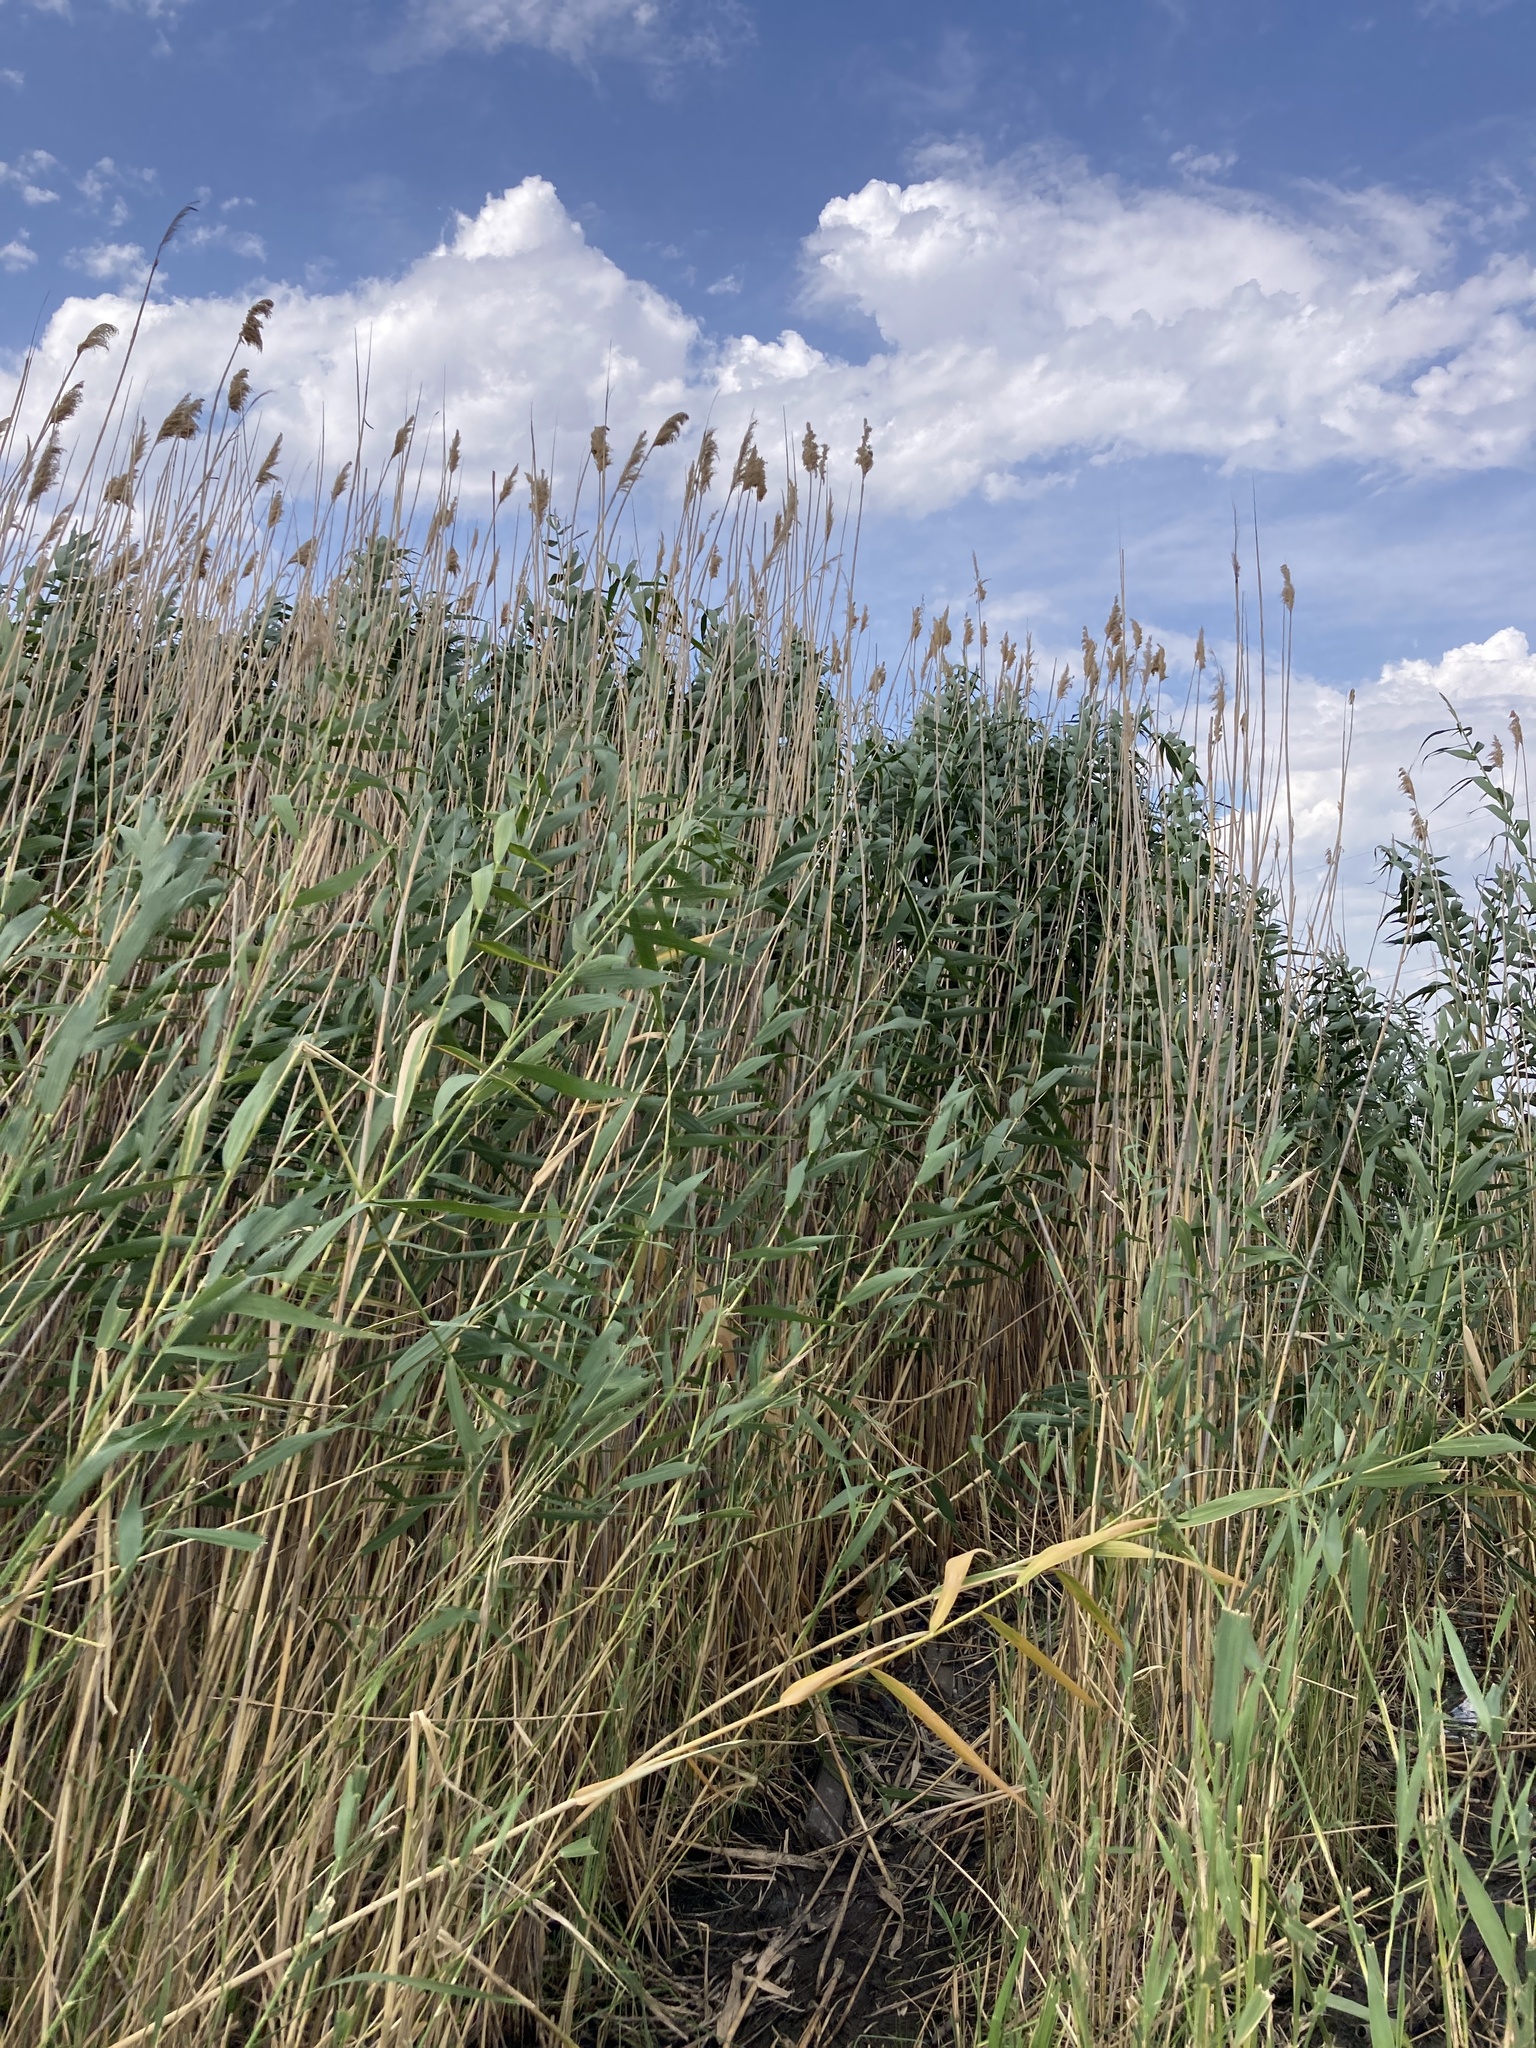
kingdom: Plantae
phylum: Tracheophyta
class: Liliopsida
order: Poales
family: Poaceae
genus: Phragmites
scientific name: Phragmites australis
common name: Common reed
